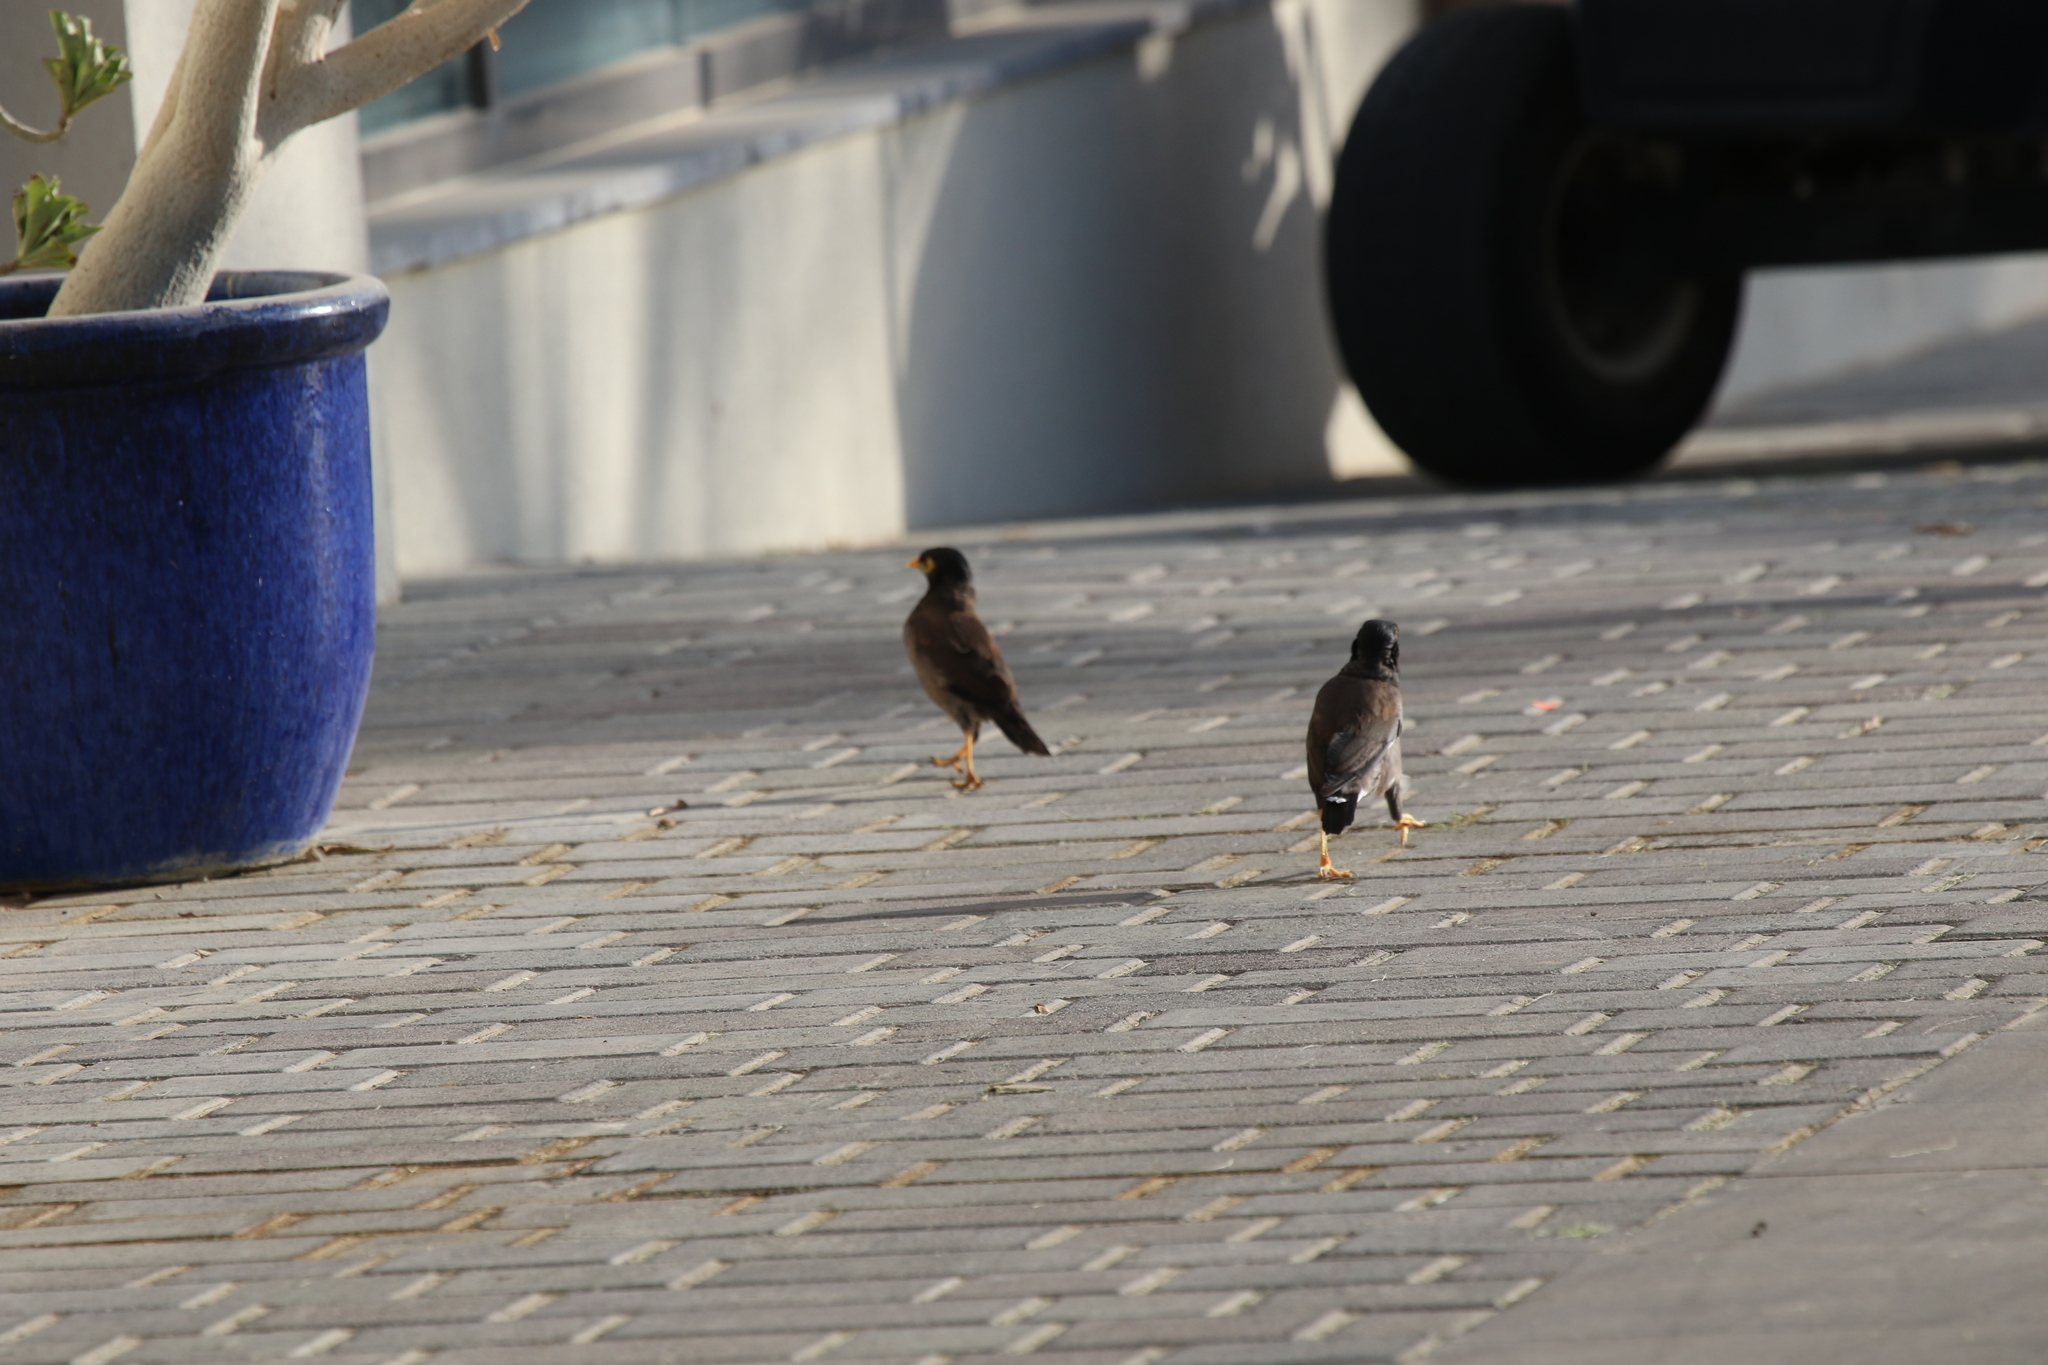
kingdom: Animalia
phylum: Chordata
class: Aves
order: Passeriformes
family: Sturnidae
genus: Acridotheres
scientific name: Acridotheres tristis
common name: Common myna
